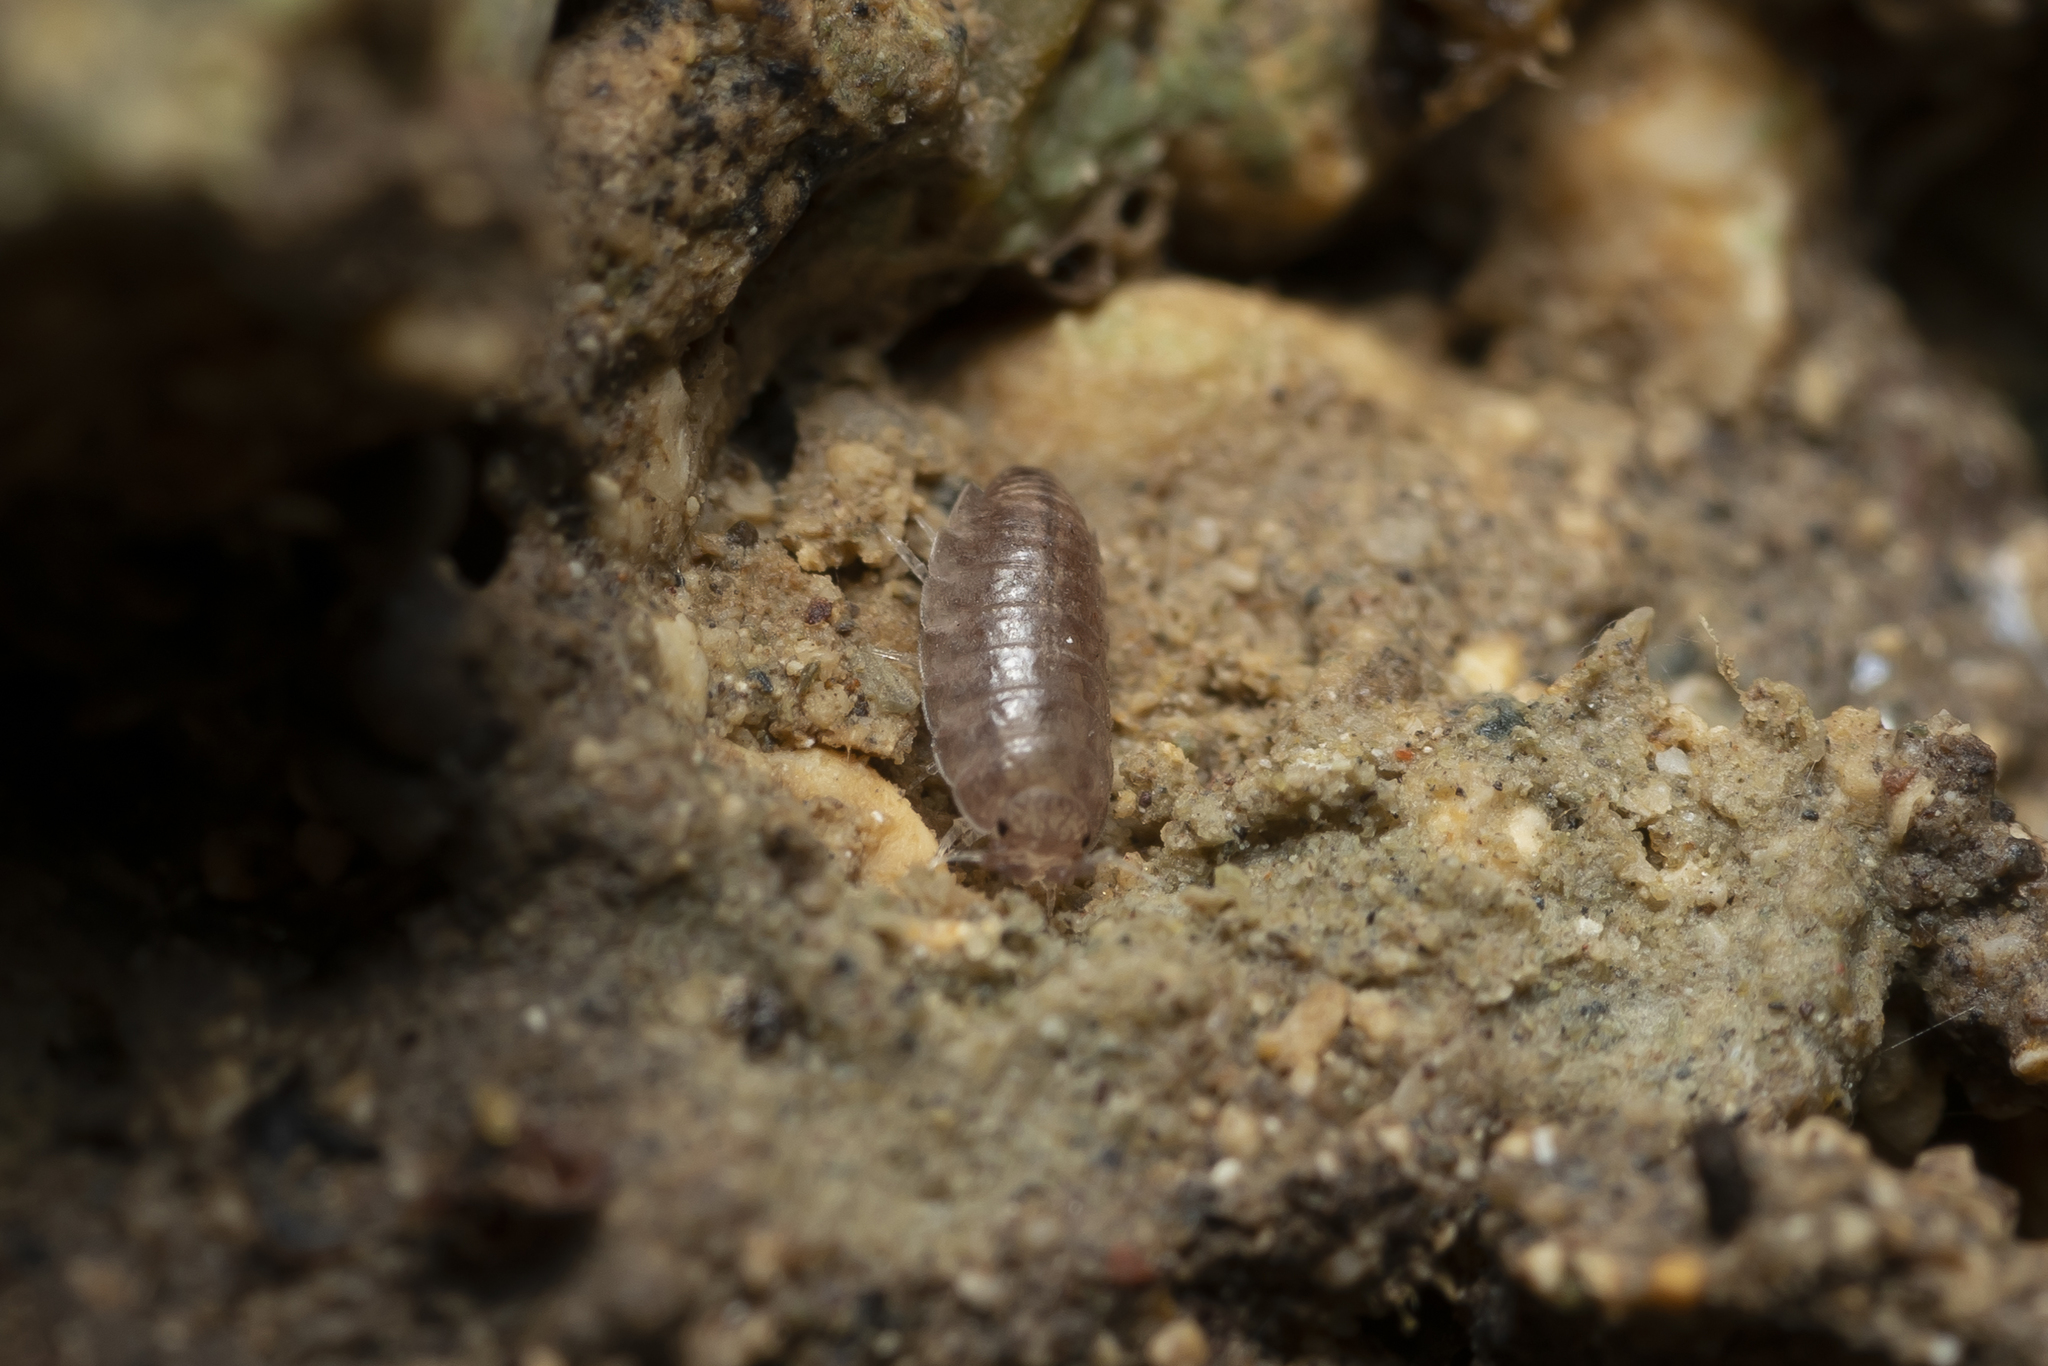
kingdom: Animalia
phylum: Arthropoda
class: Malacostraca
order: Isopoda
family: Trichoniscidae
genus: Trichoniscus
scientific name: Trichoniscus
